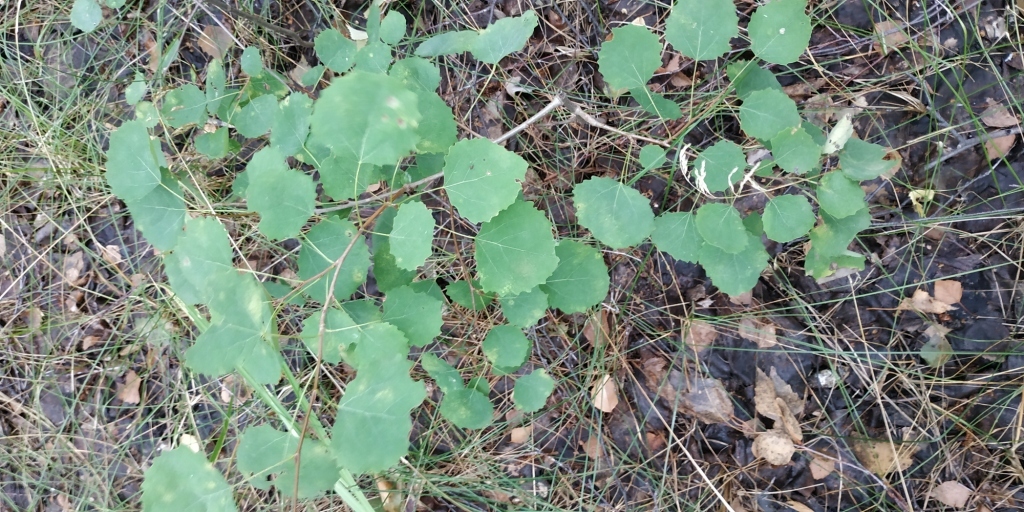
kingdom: Plantae
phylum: Tracheophyta
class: Magnoliopsida
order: Malpighiales
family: Salicaceae
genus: Populus
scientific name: Populus tremula
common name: European aspen
